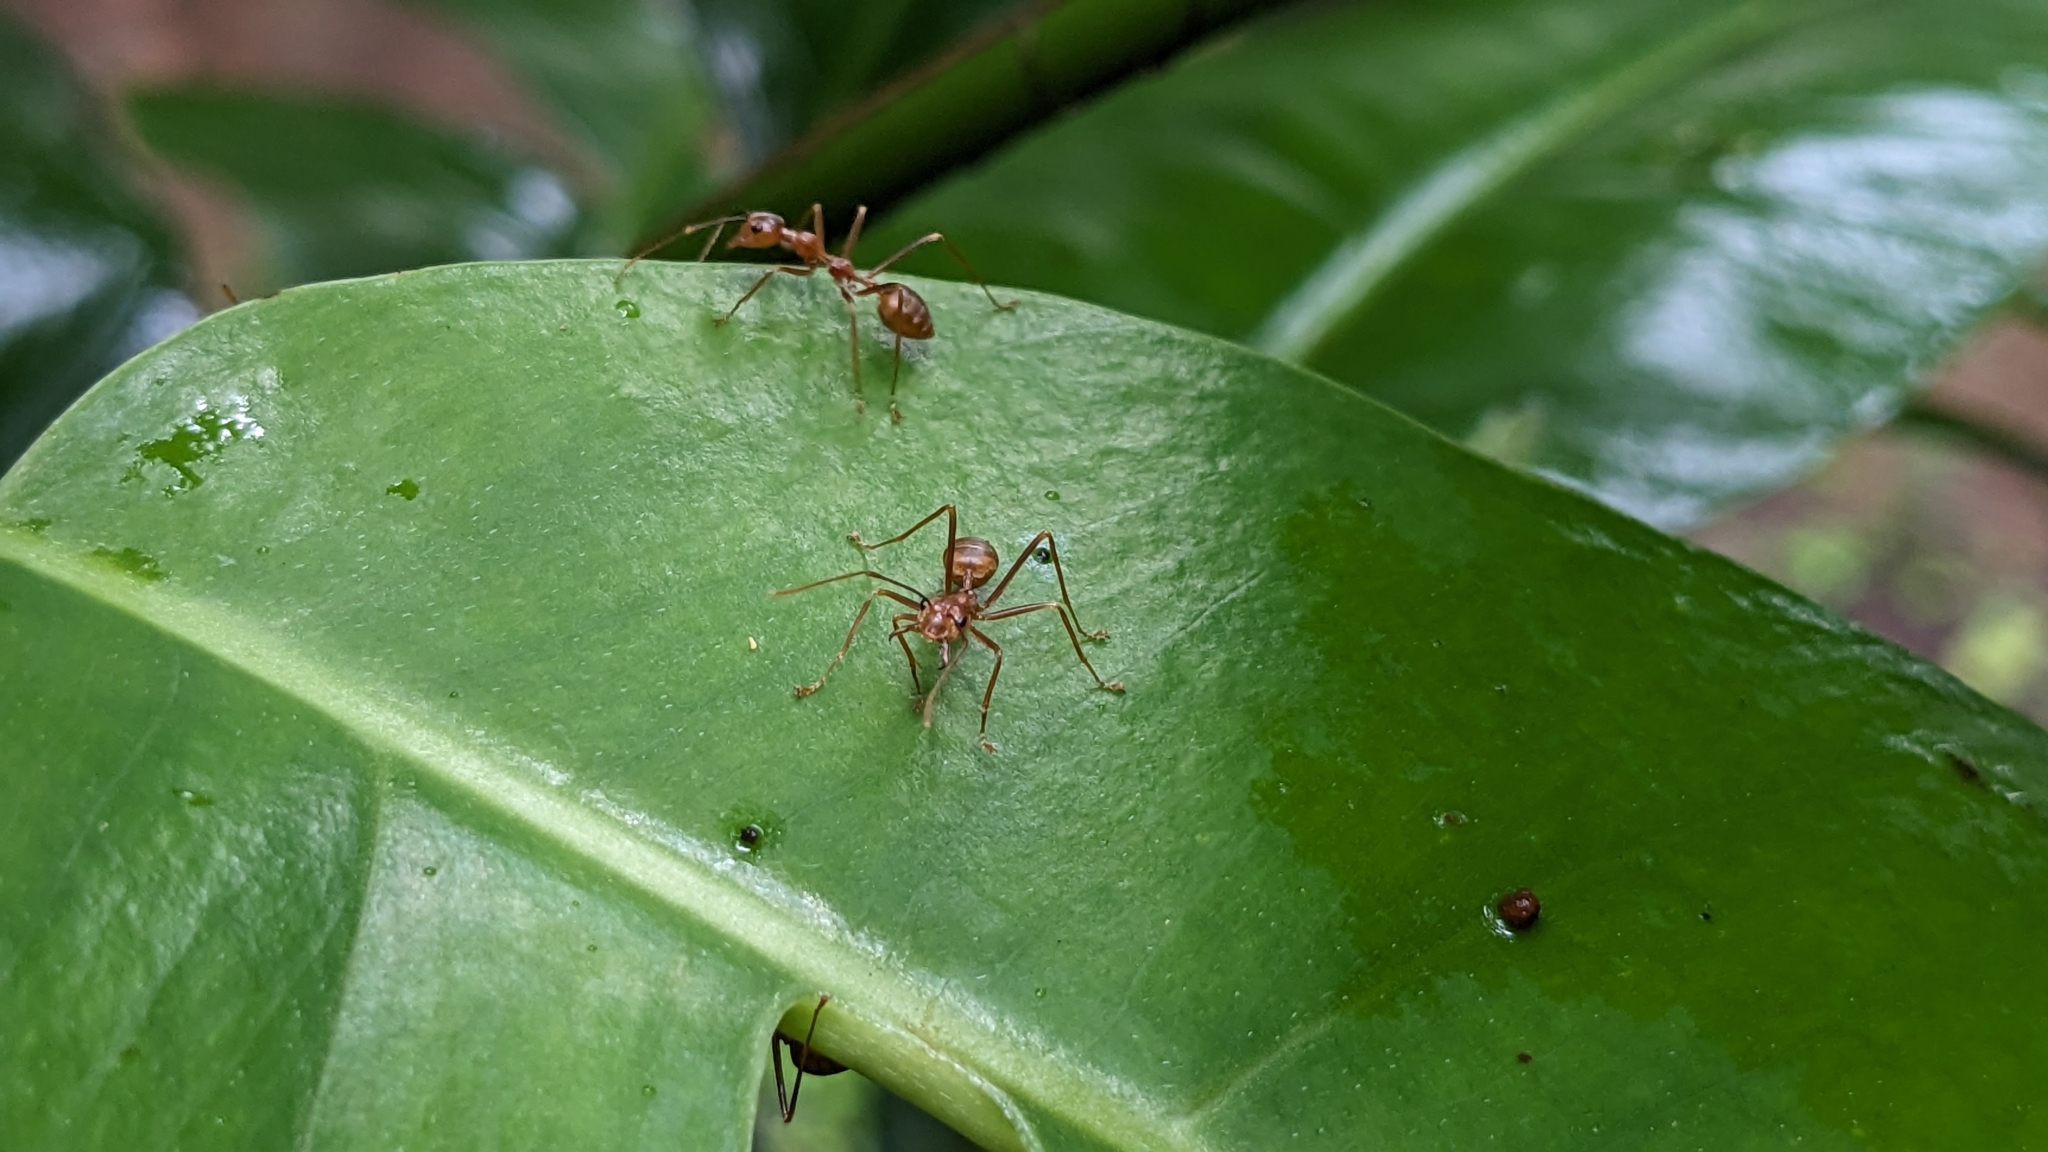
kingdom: Animalia
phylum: Arthropoda
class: Insecta
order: Hymenoptera
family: Formicidae
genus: Oecophylla
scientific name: Oecophylla smaragdina
